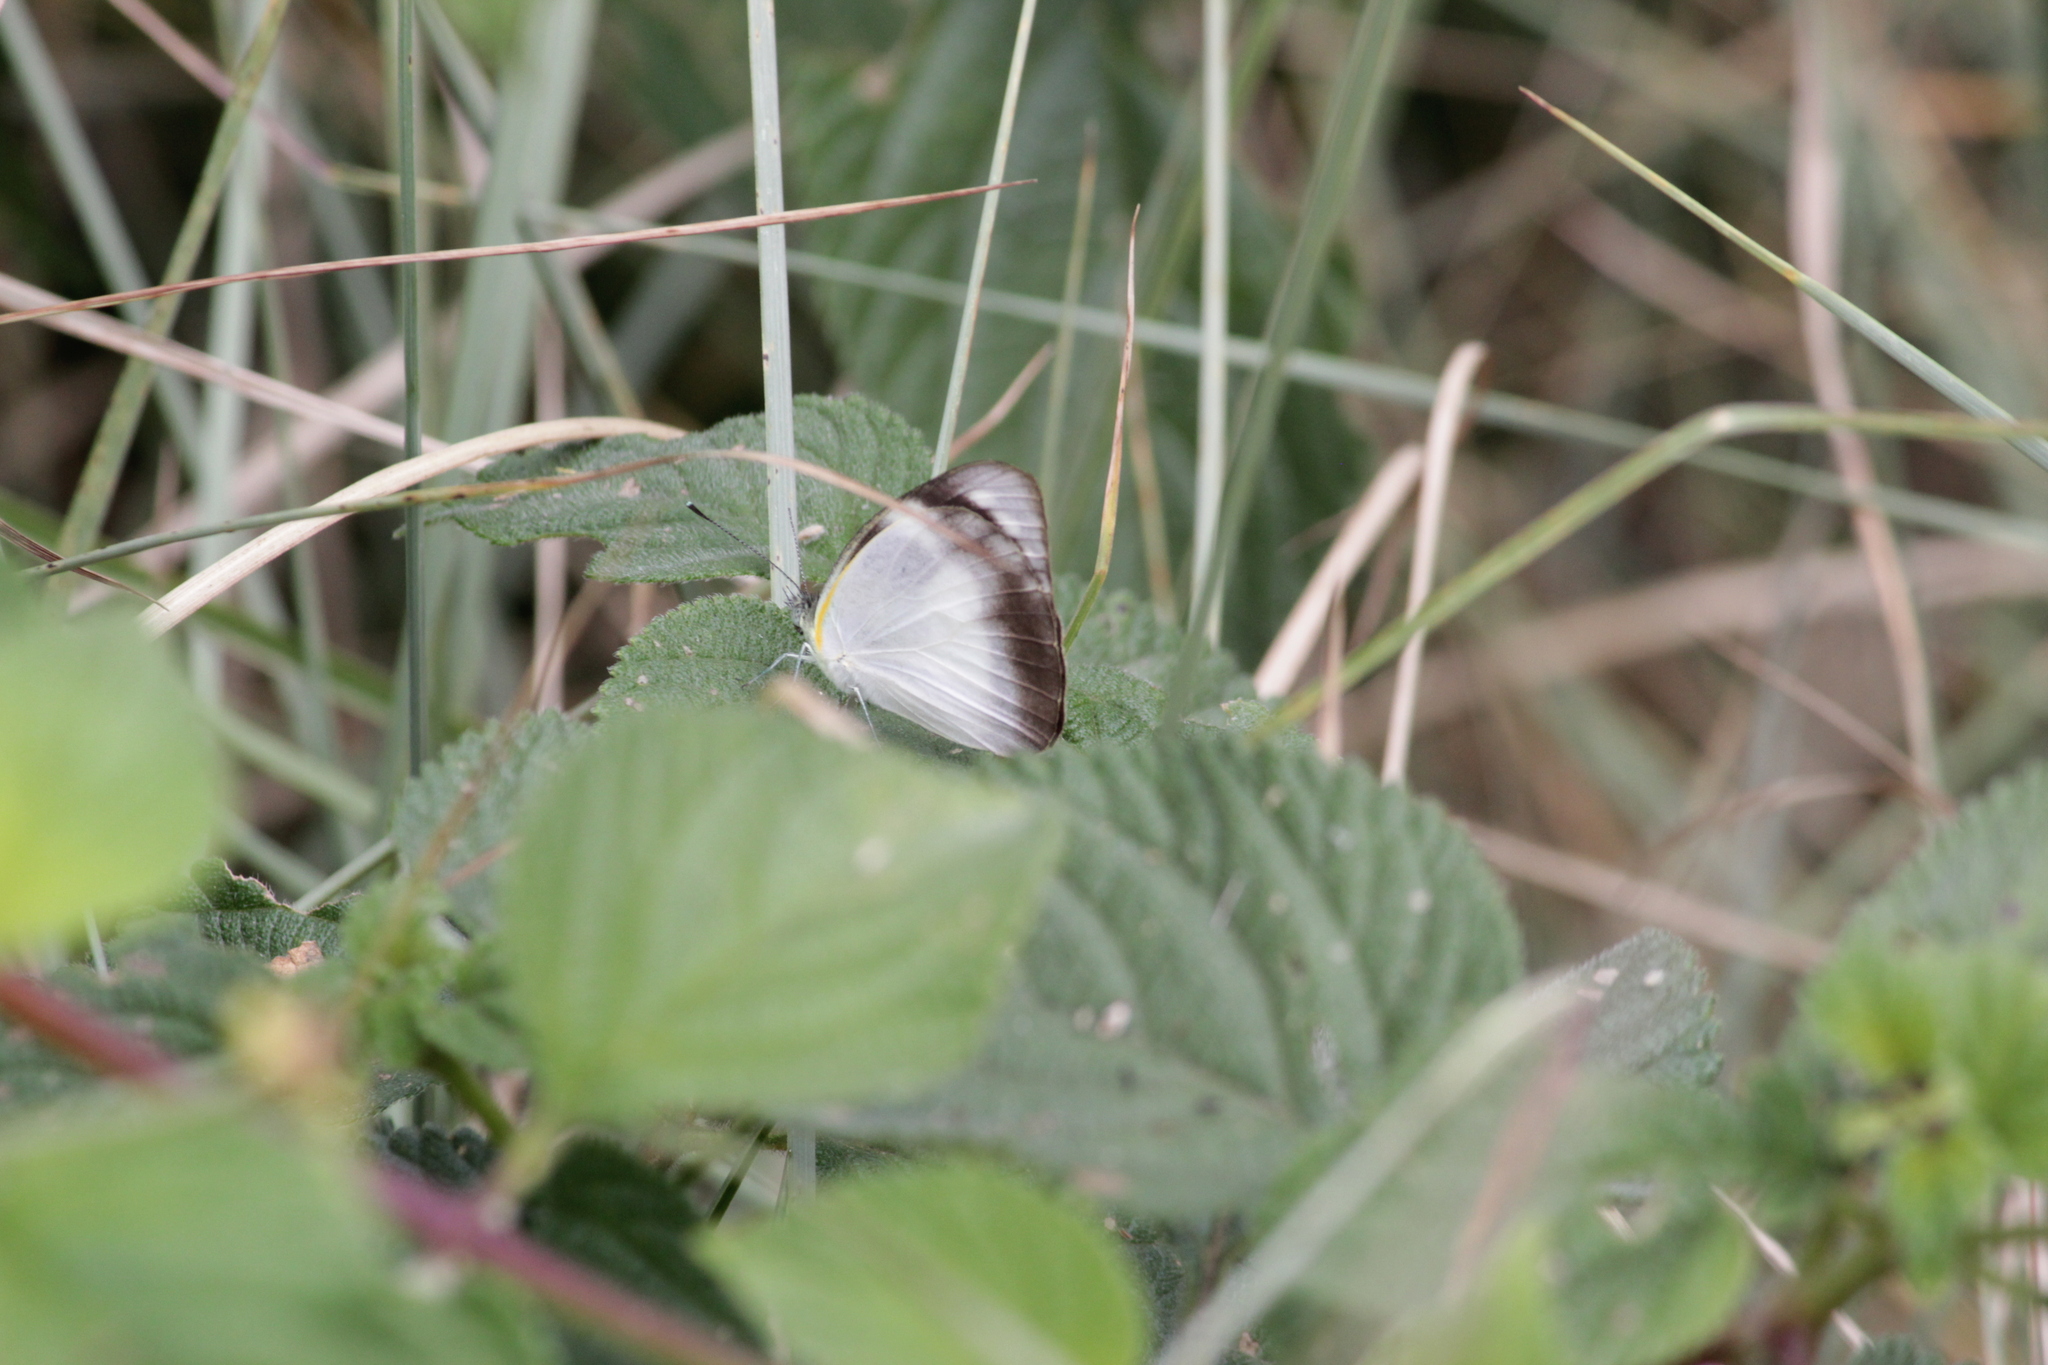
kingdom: Animalia
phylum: Arthropoda
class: Insecta
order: Lepidoptera
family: Pieridae
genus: Glutophrissa
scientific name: Glutophrissa epaphia
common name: African albatross
